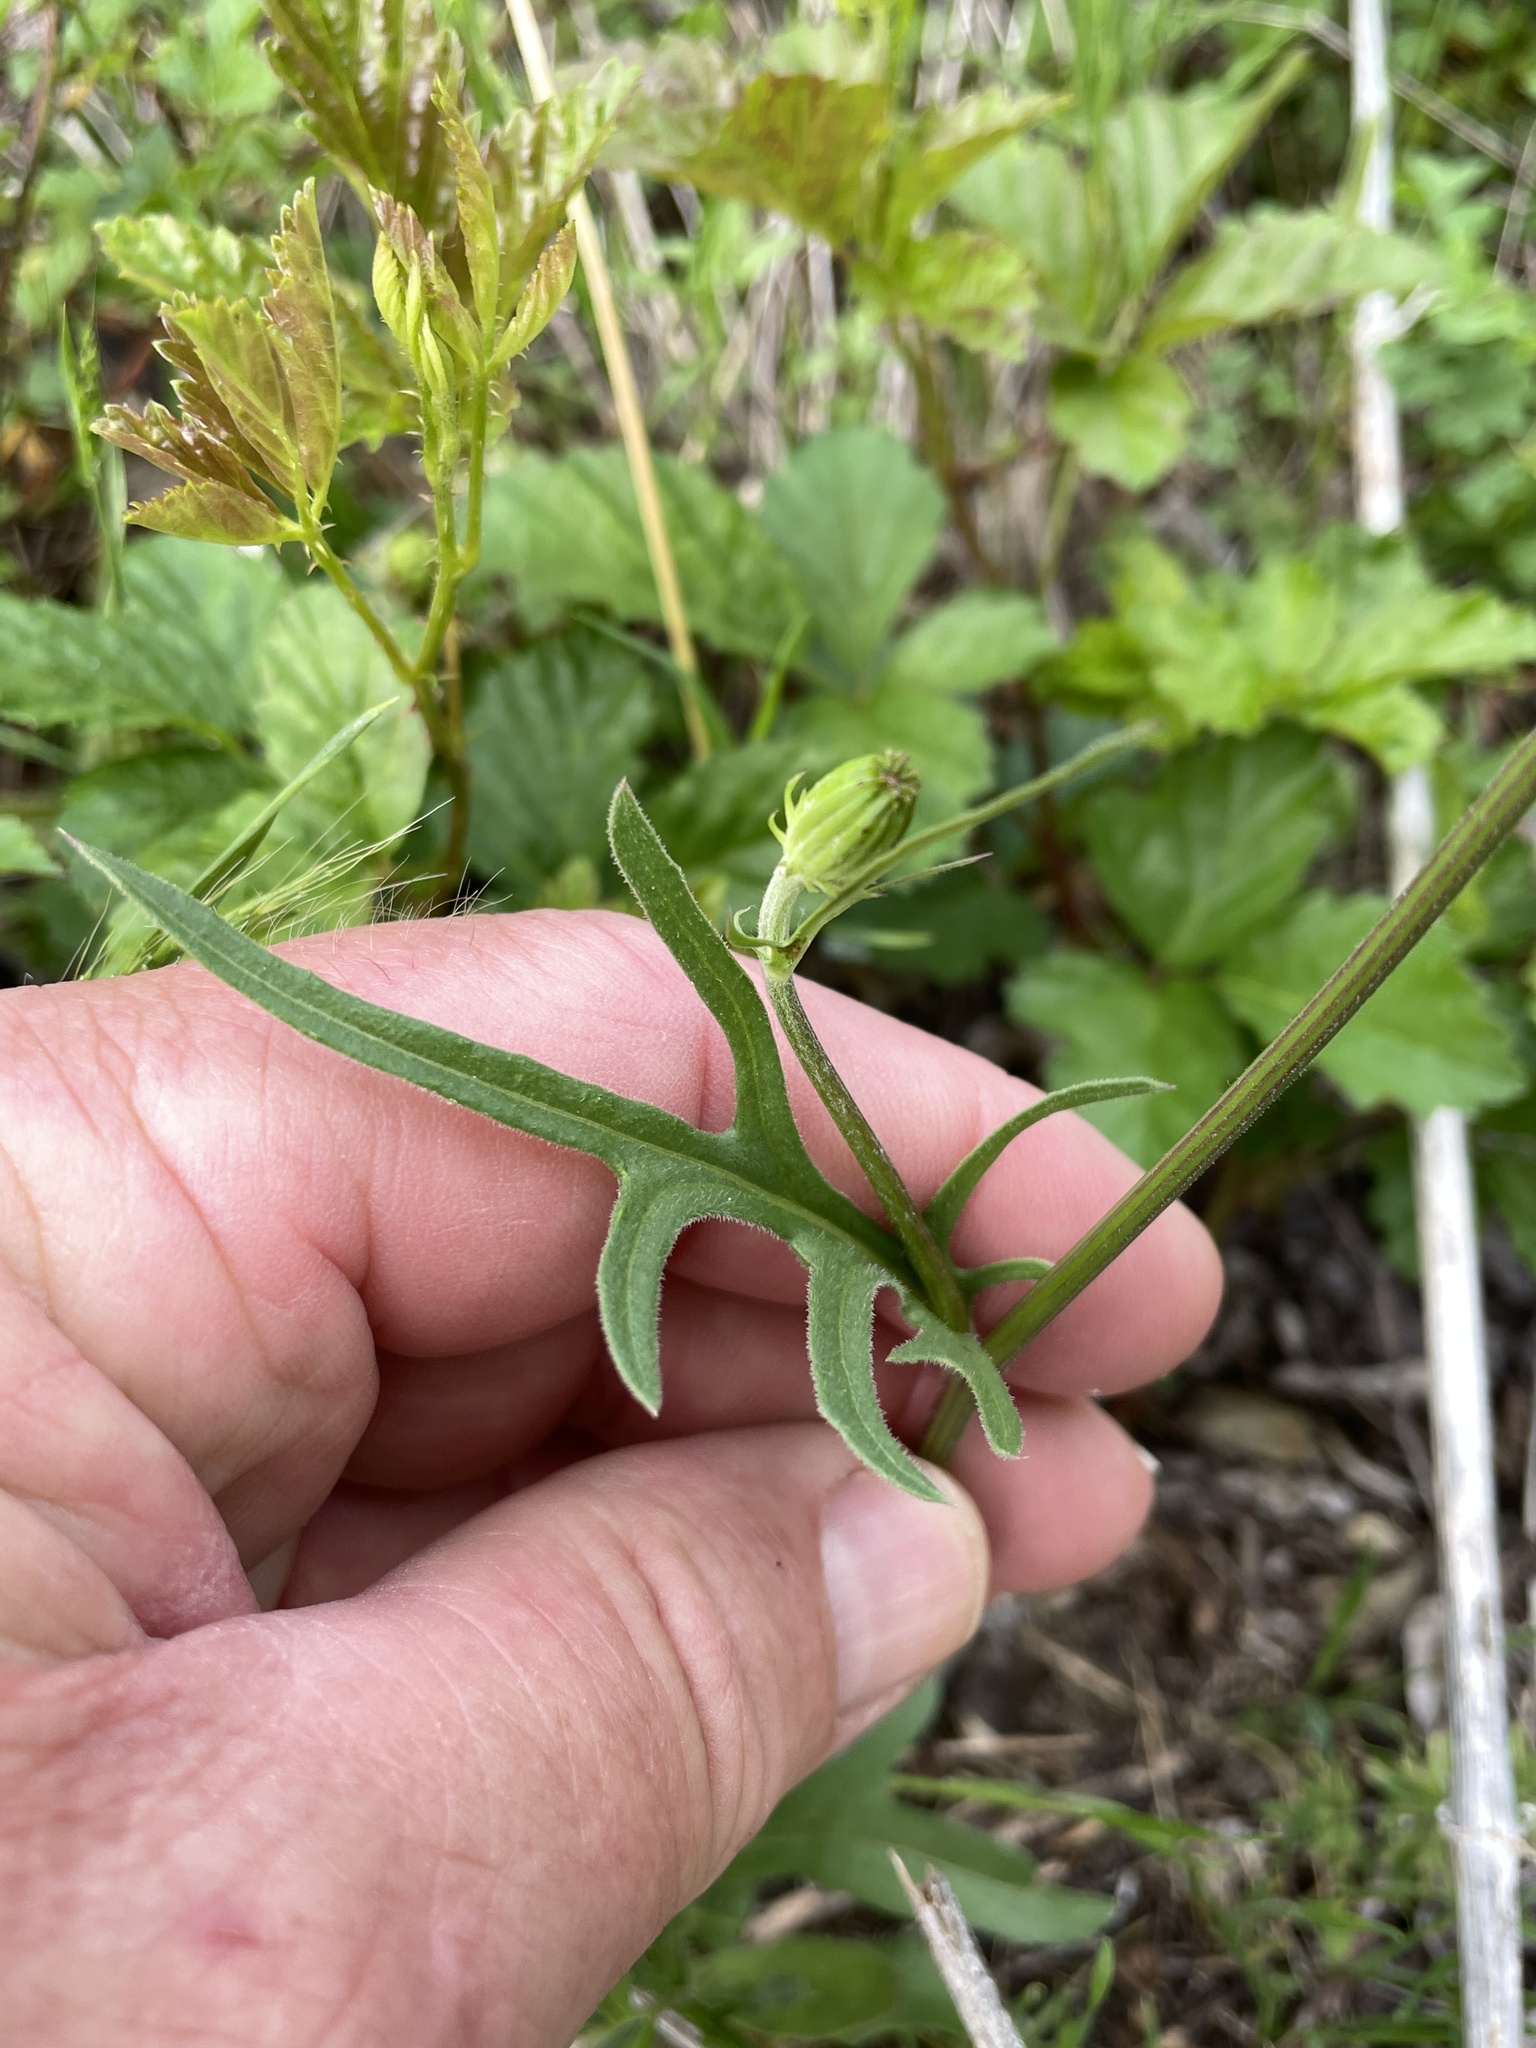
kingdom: Plantae
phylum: Tracheophyta
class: Magnoliopsida
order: Asterales
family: Asteraceae
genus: Pyrrhopappus
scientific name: Pyrrhopappus pauciflorus
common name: Texas false dandelion
